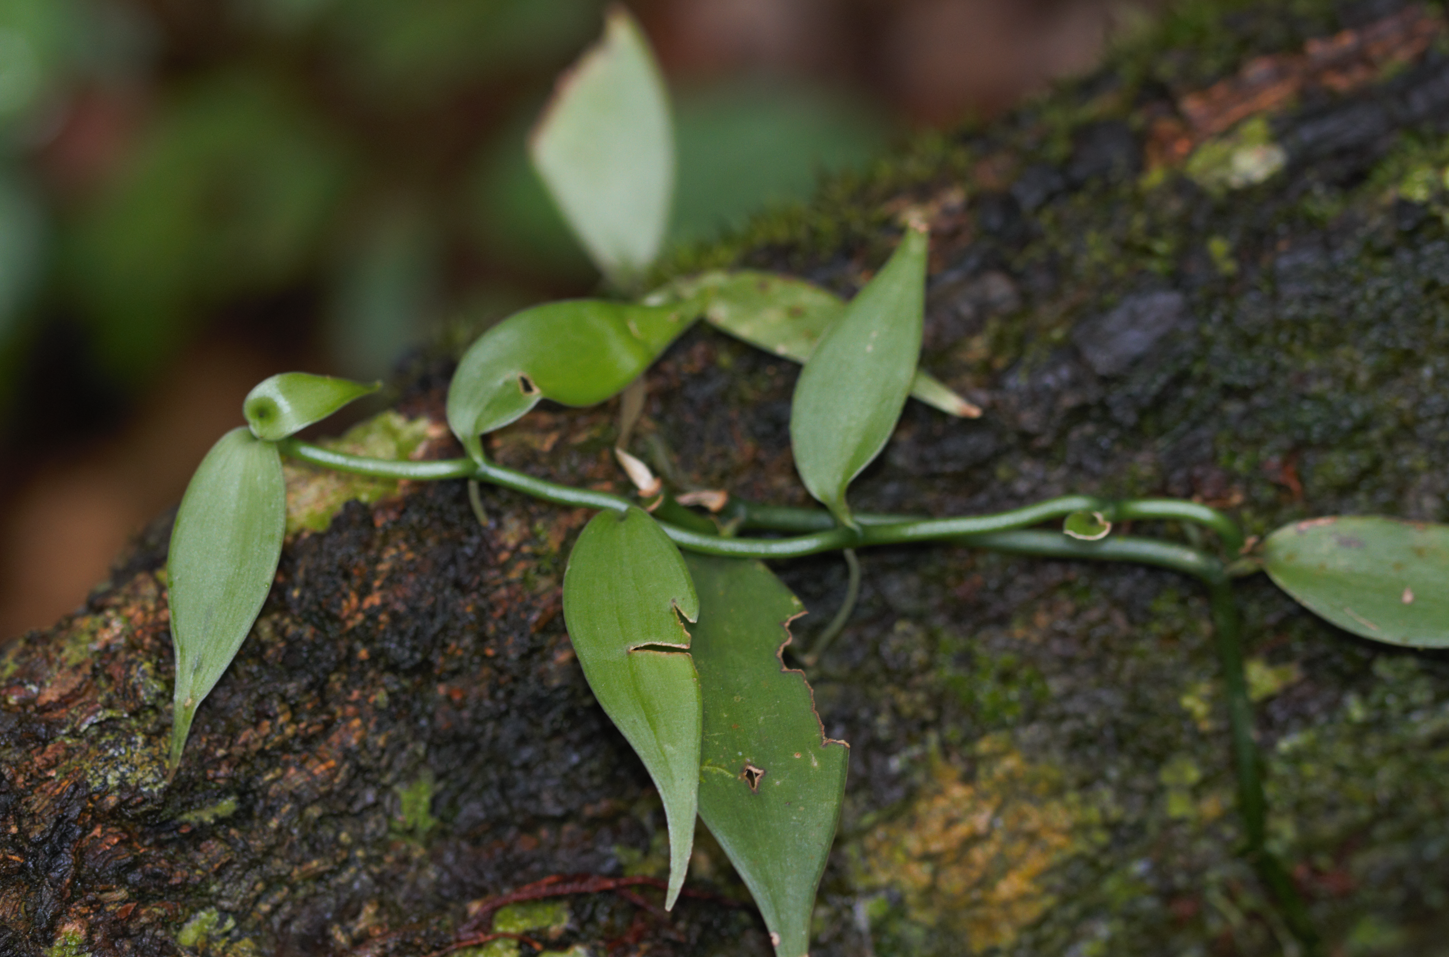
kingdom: Plantae
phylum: Tracheophyta
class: Liliopsida
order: Asparagales
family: Orchidaceae
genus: Vanilla
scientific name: Vanilla
